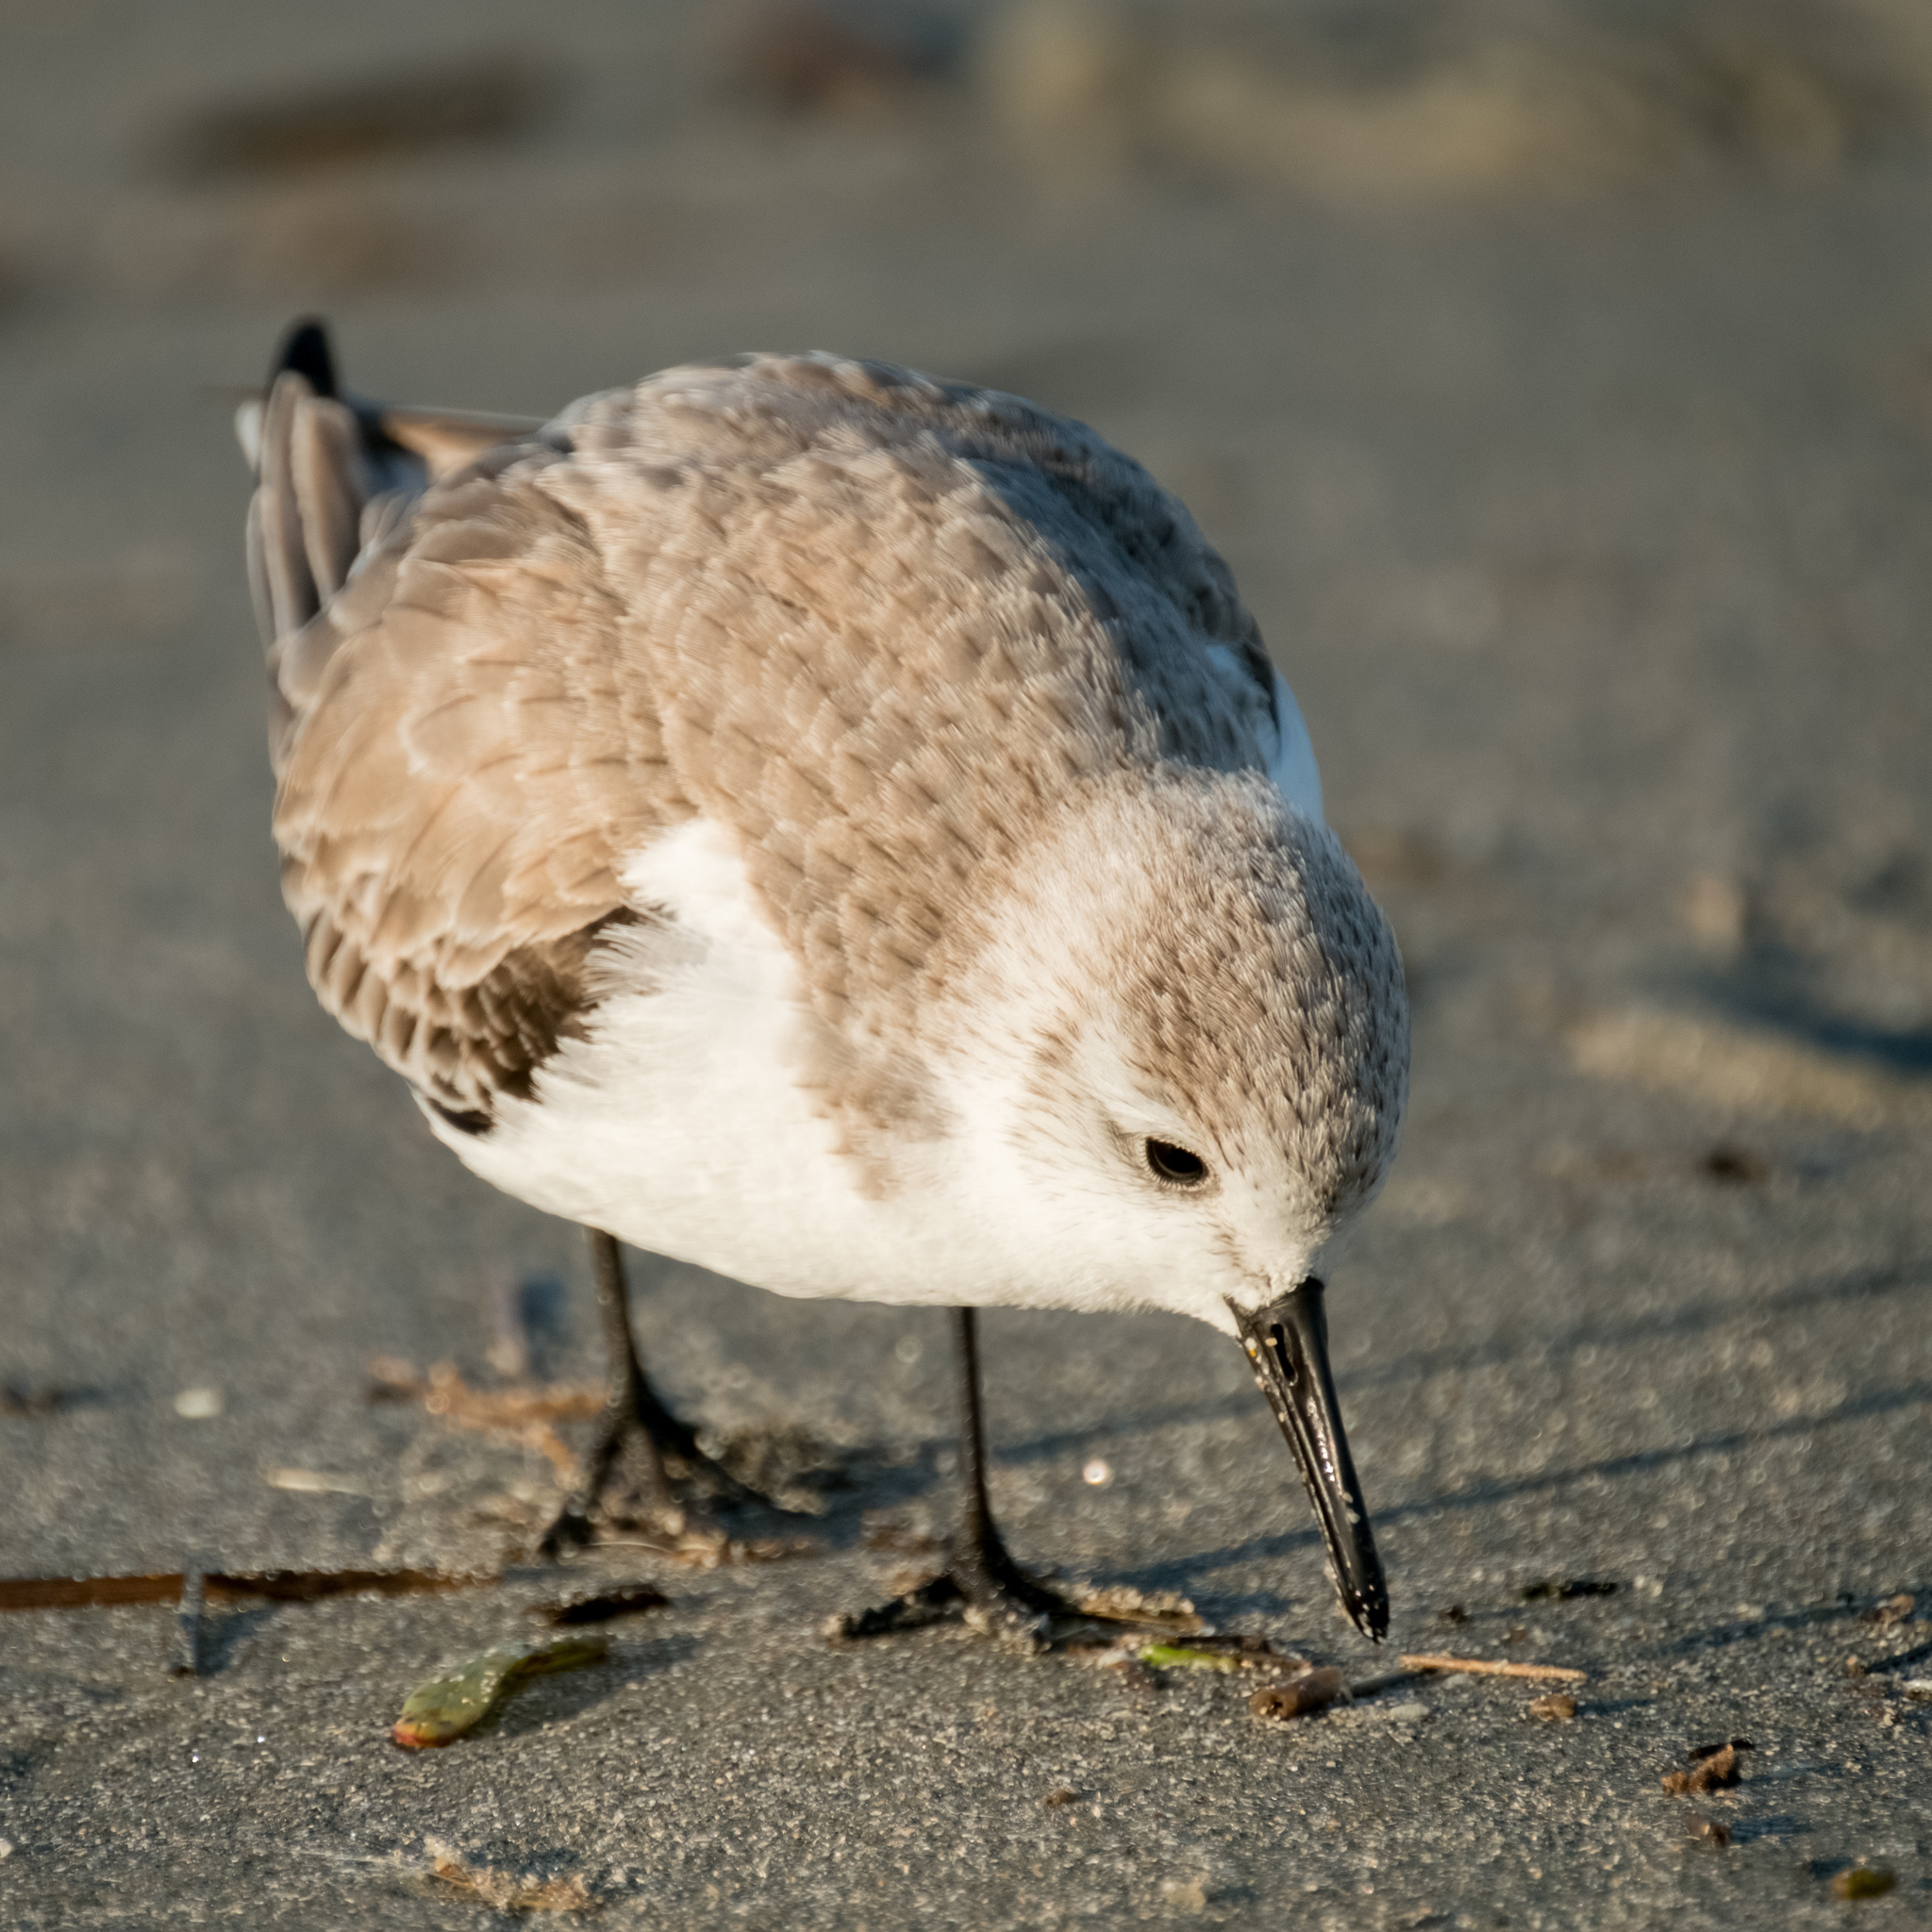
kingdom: Animalia
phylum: Chordata
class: Aves
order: Charadriiformes
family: Scolopacidae
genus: Calidris
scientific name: Calidris alba
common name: Sanderling
